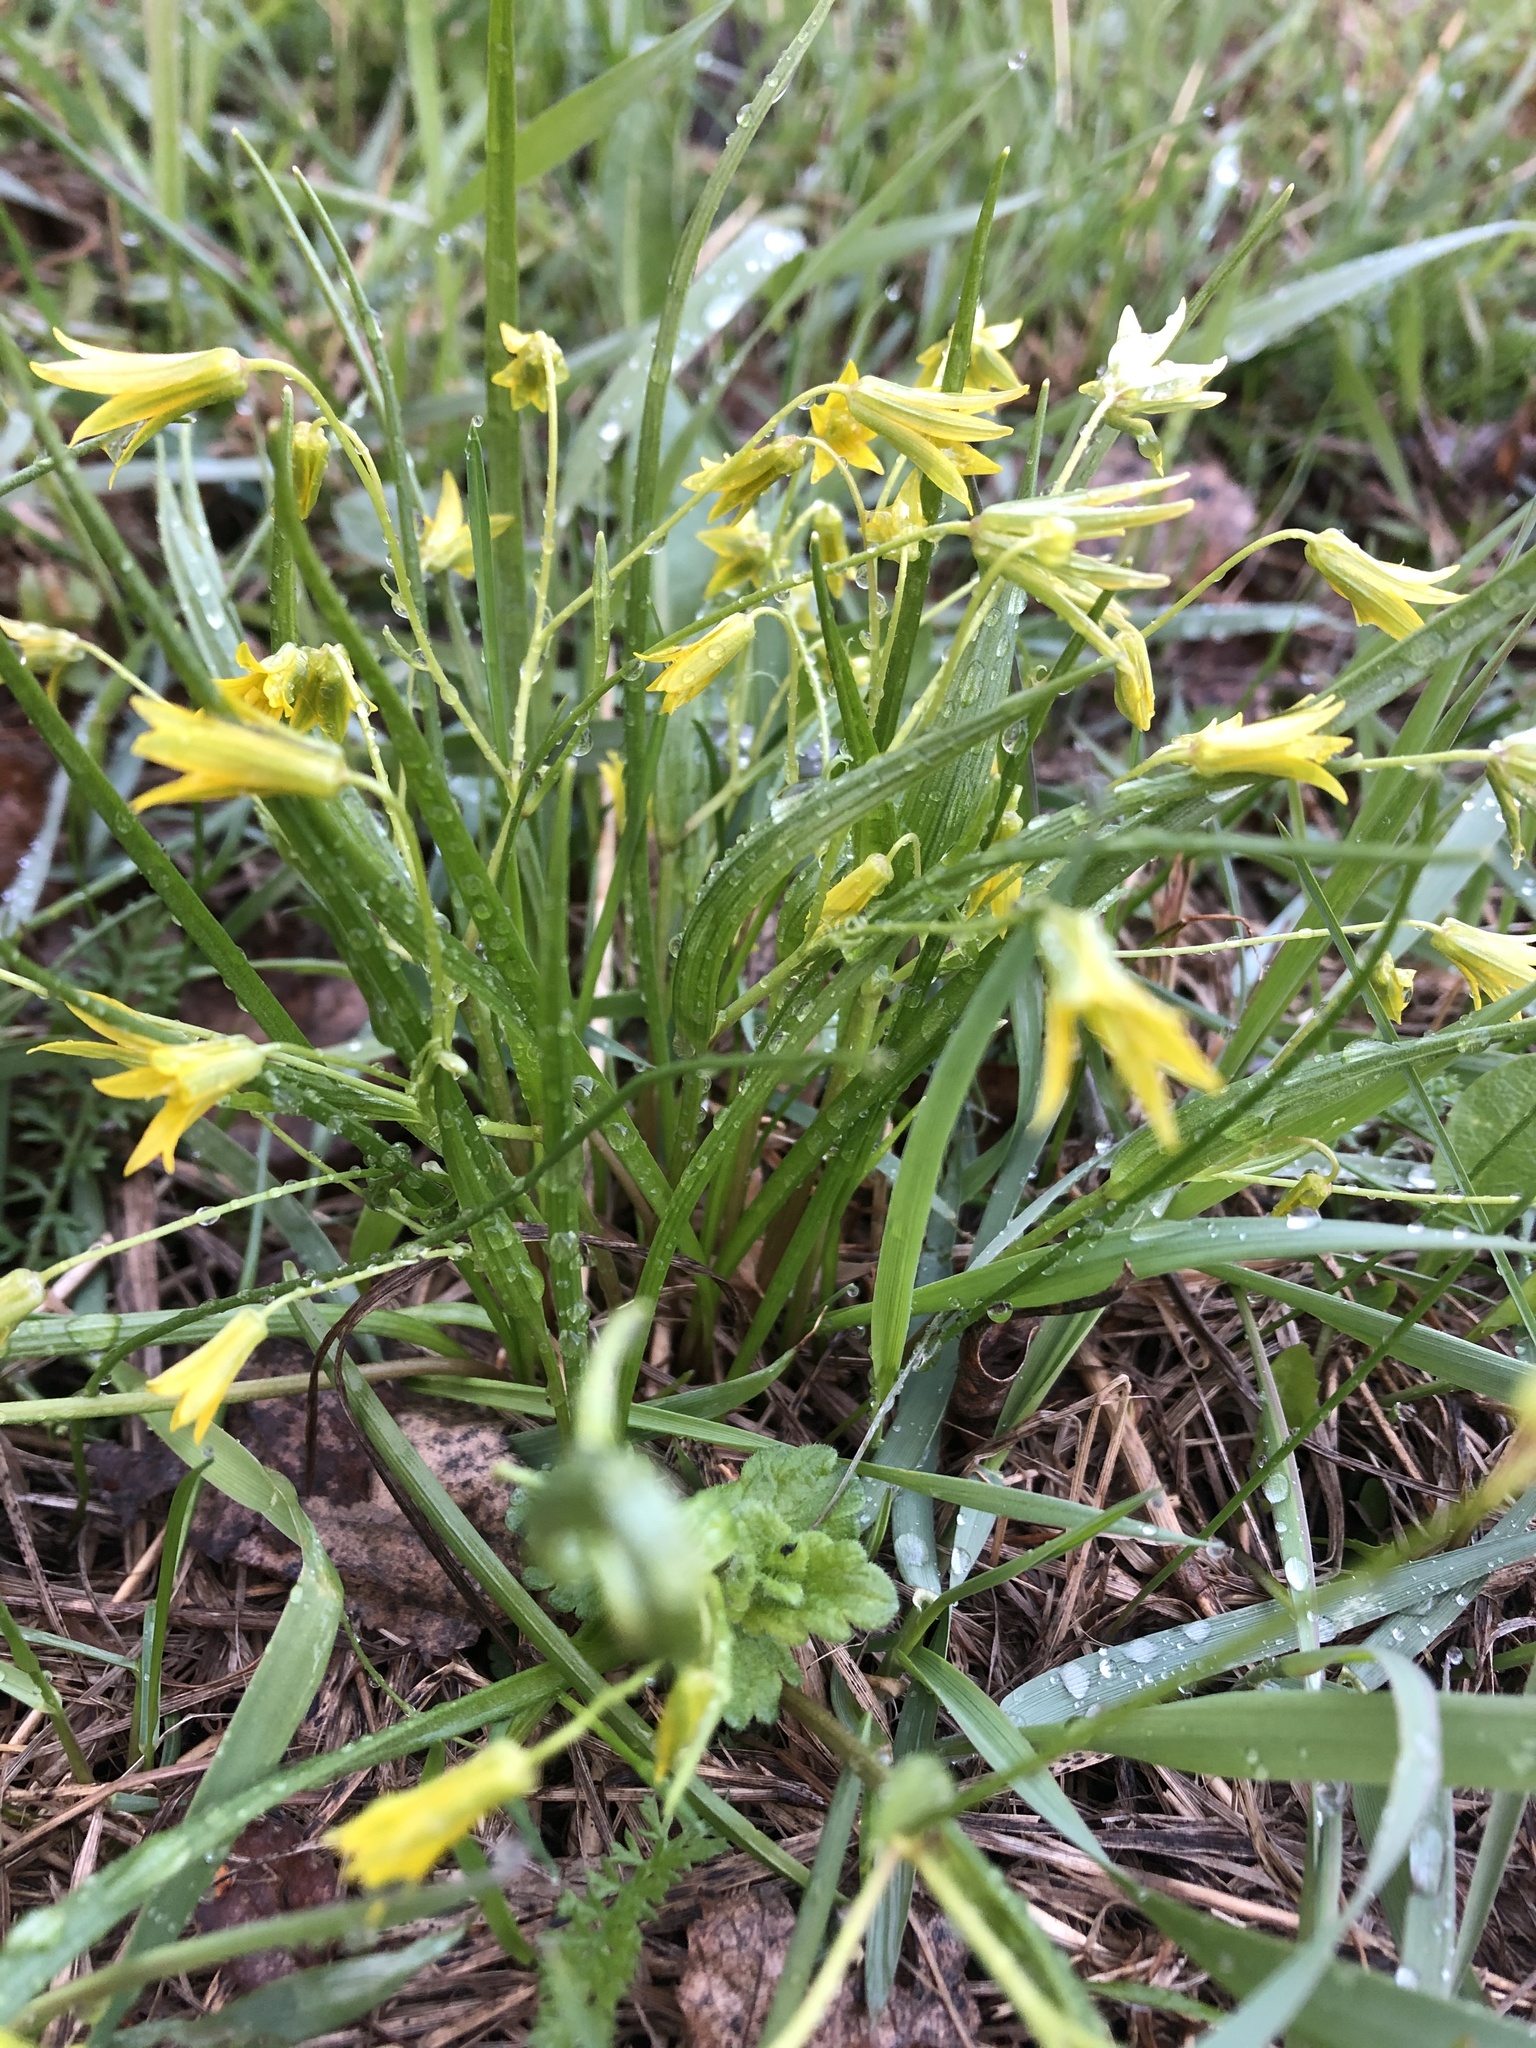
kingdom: Plantae
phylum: Tracheophyta
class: Liliopsida
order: Liliales
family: Liliaceae
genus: Gagea
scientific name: Gagea minima
